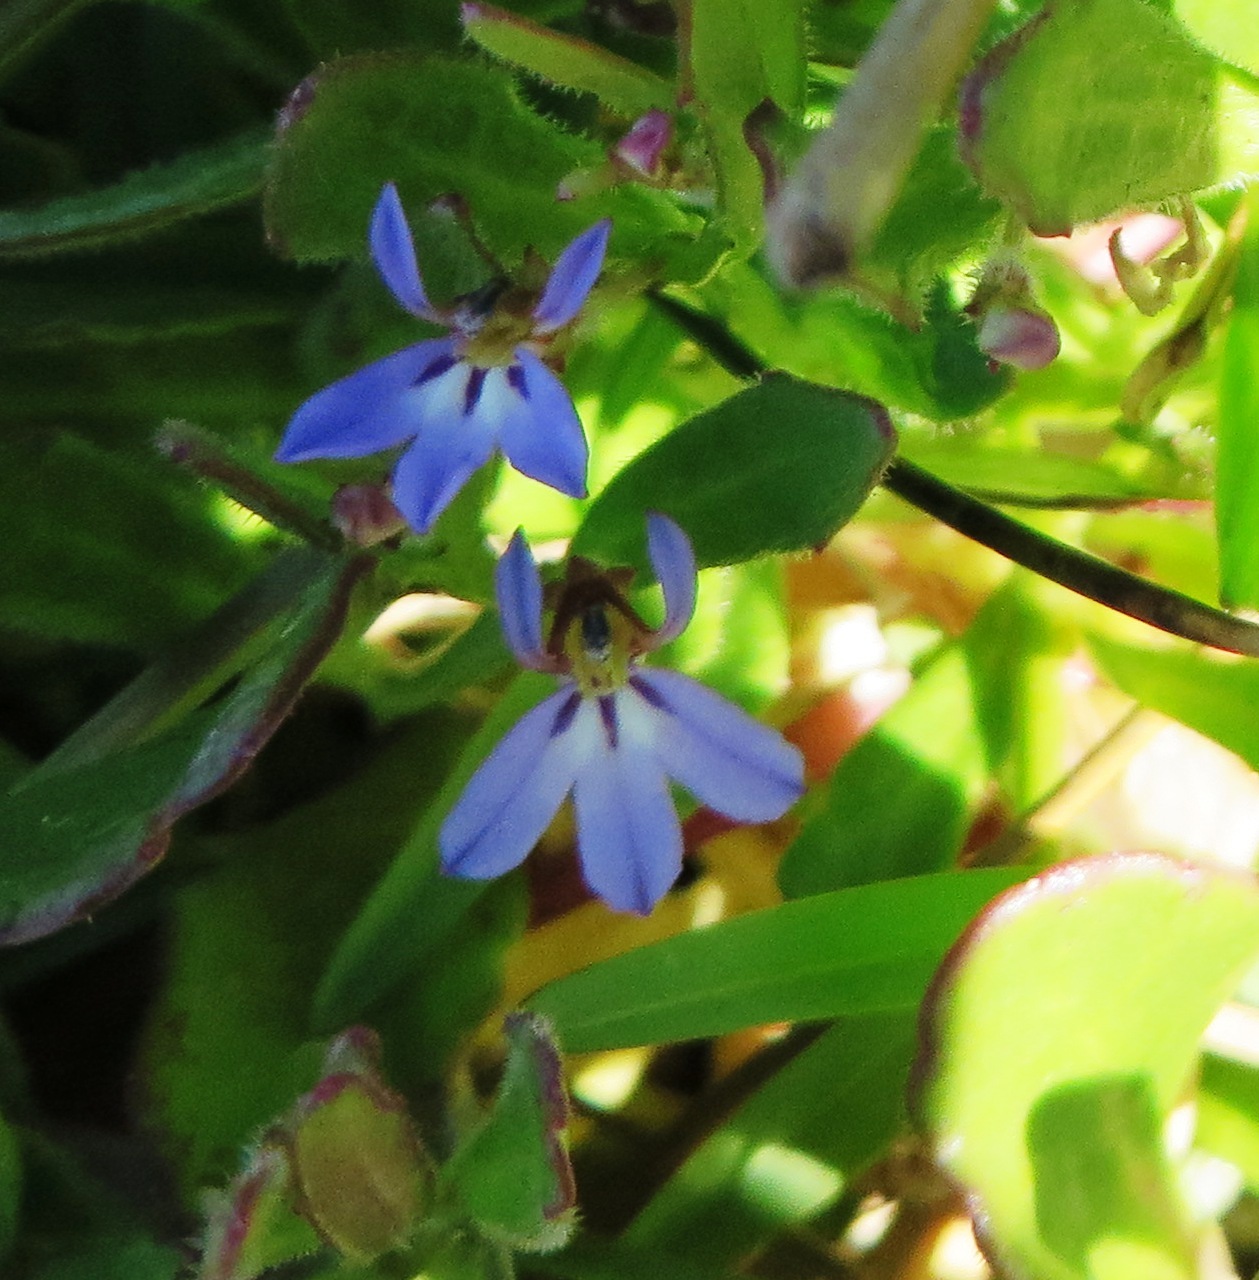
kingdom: Plantae
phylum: Tracheophyta
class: Magnoliopsida
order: Asterales
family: Campanulaceae
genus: Lobelia
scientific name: Lobelia anceps
